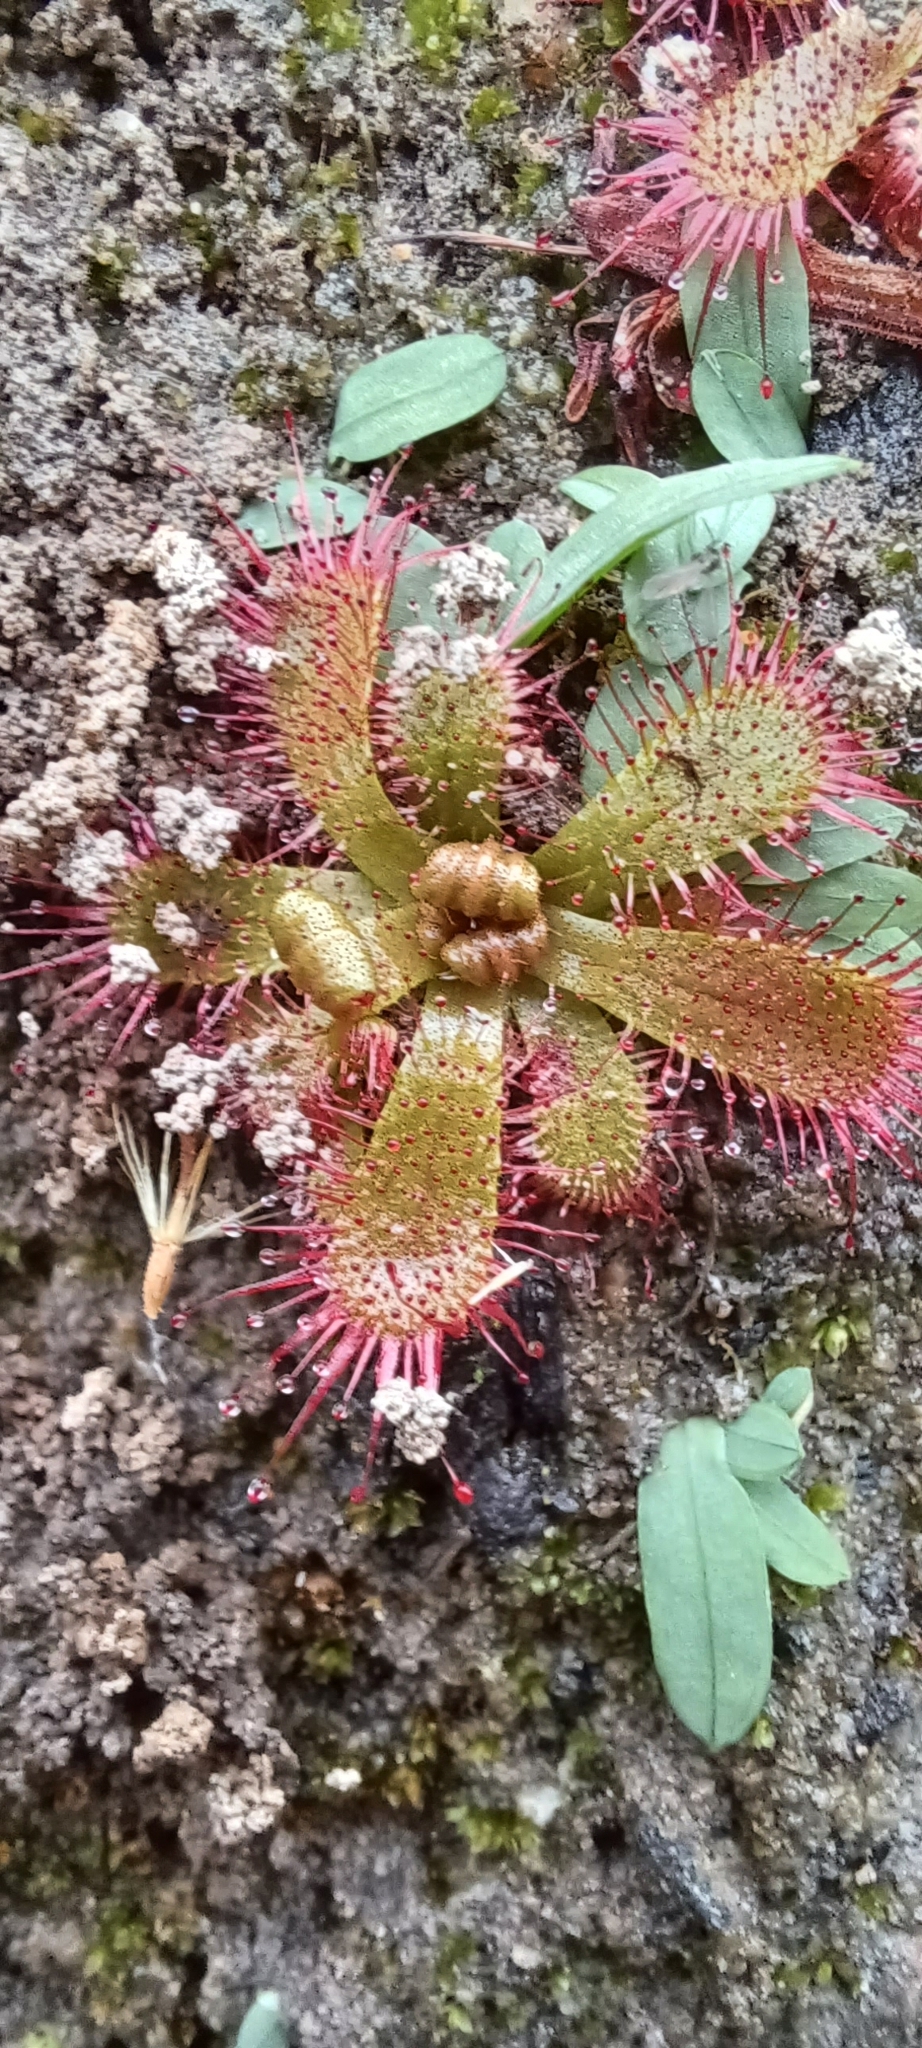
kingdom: Plantae
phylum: Tracheophyta
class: Magnoliopsida
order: Caryophyllales
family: Droseraceae
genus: Drosera
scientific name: Drosera trinervia
